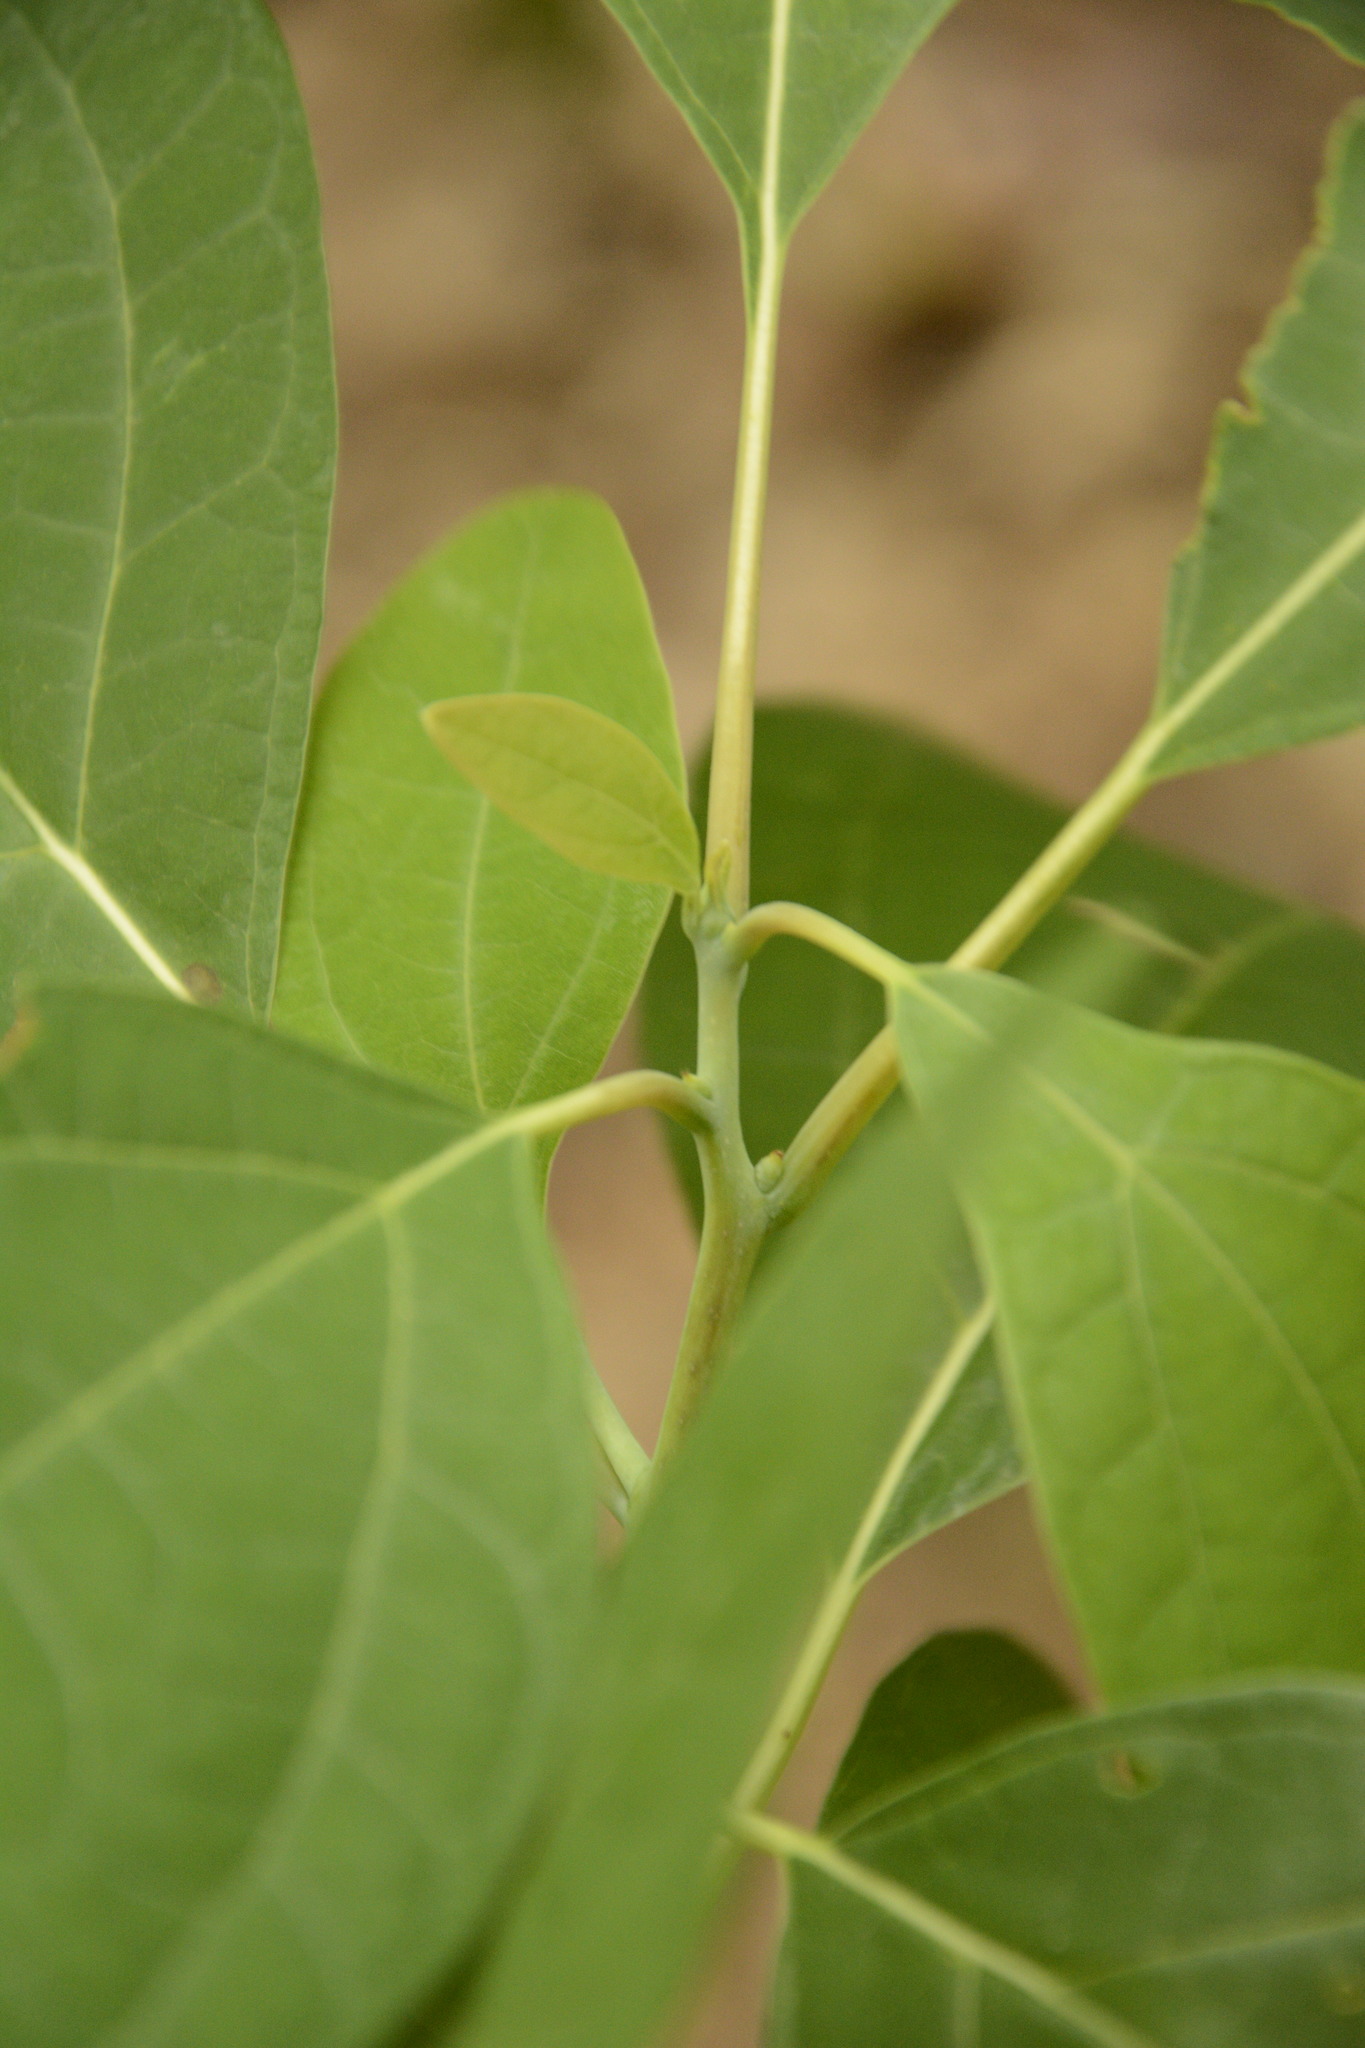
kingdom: Plantae
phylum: Tracheophyta
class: Magnoliopsida
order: Laurales
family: Lauraceae
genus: Sassafras
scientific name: Sassafras albidum
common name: Sassafras
